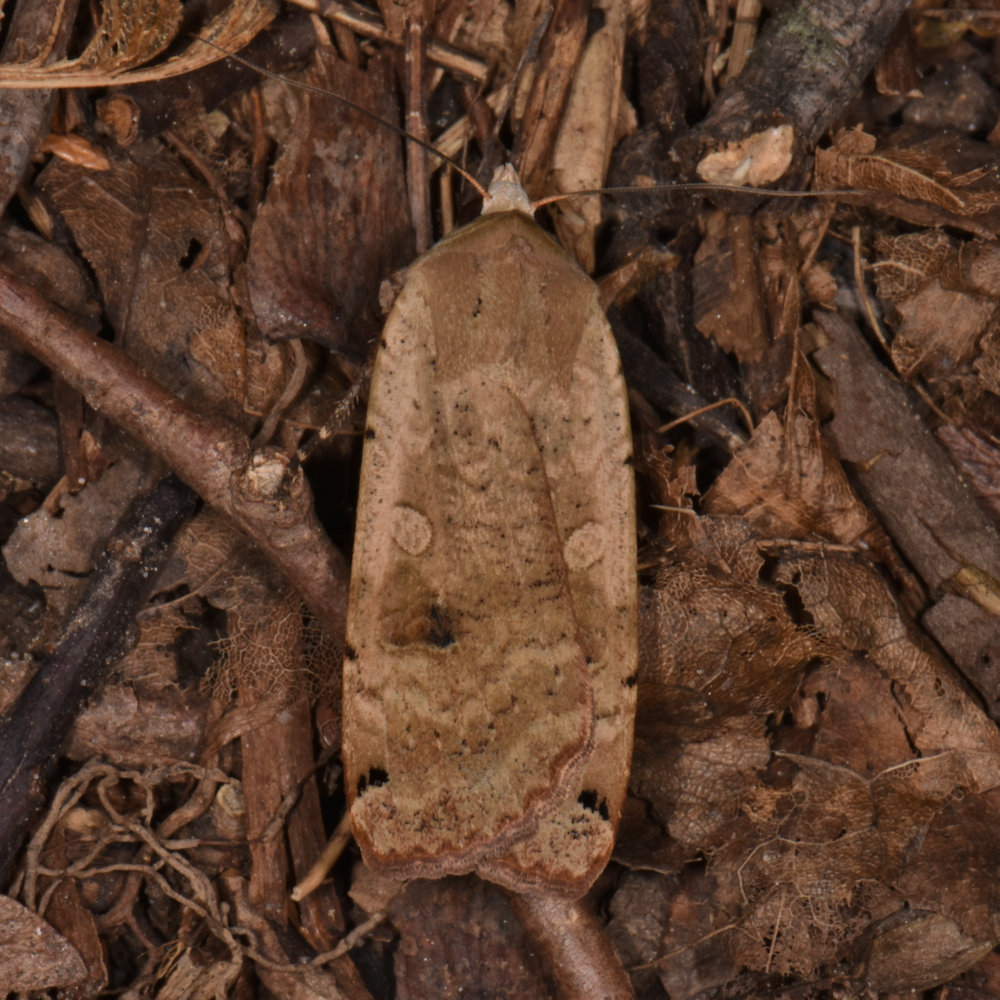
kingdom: Animalia
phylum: Arthropoda
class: Insecta
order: Lepidoptera
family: Noctuidae
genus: Noctua
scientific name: Noctua pronuba
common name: Large yellow underwing
